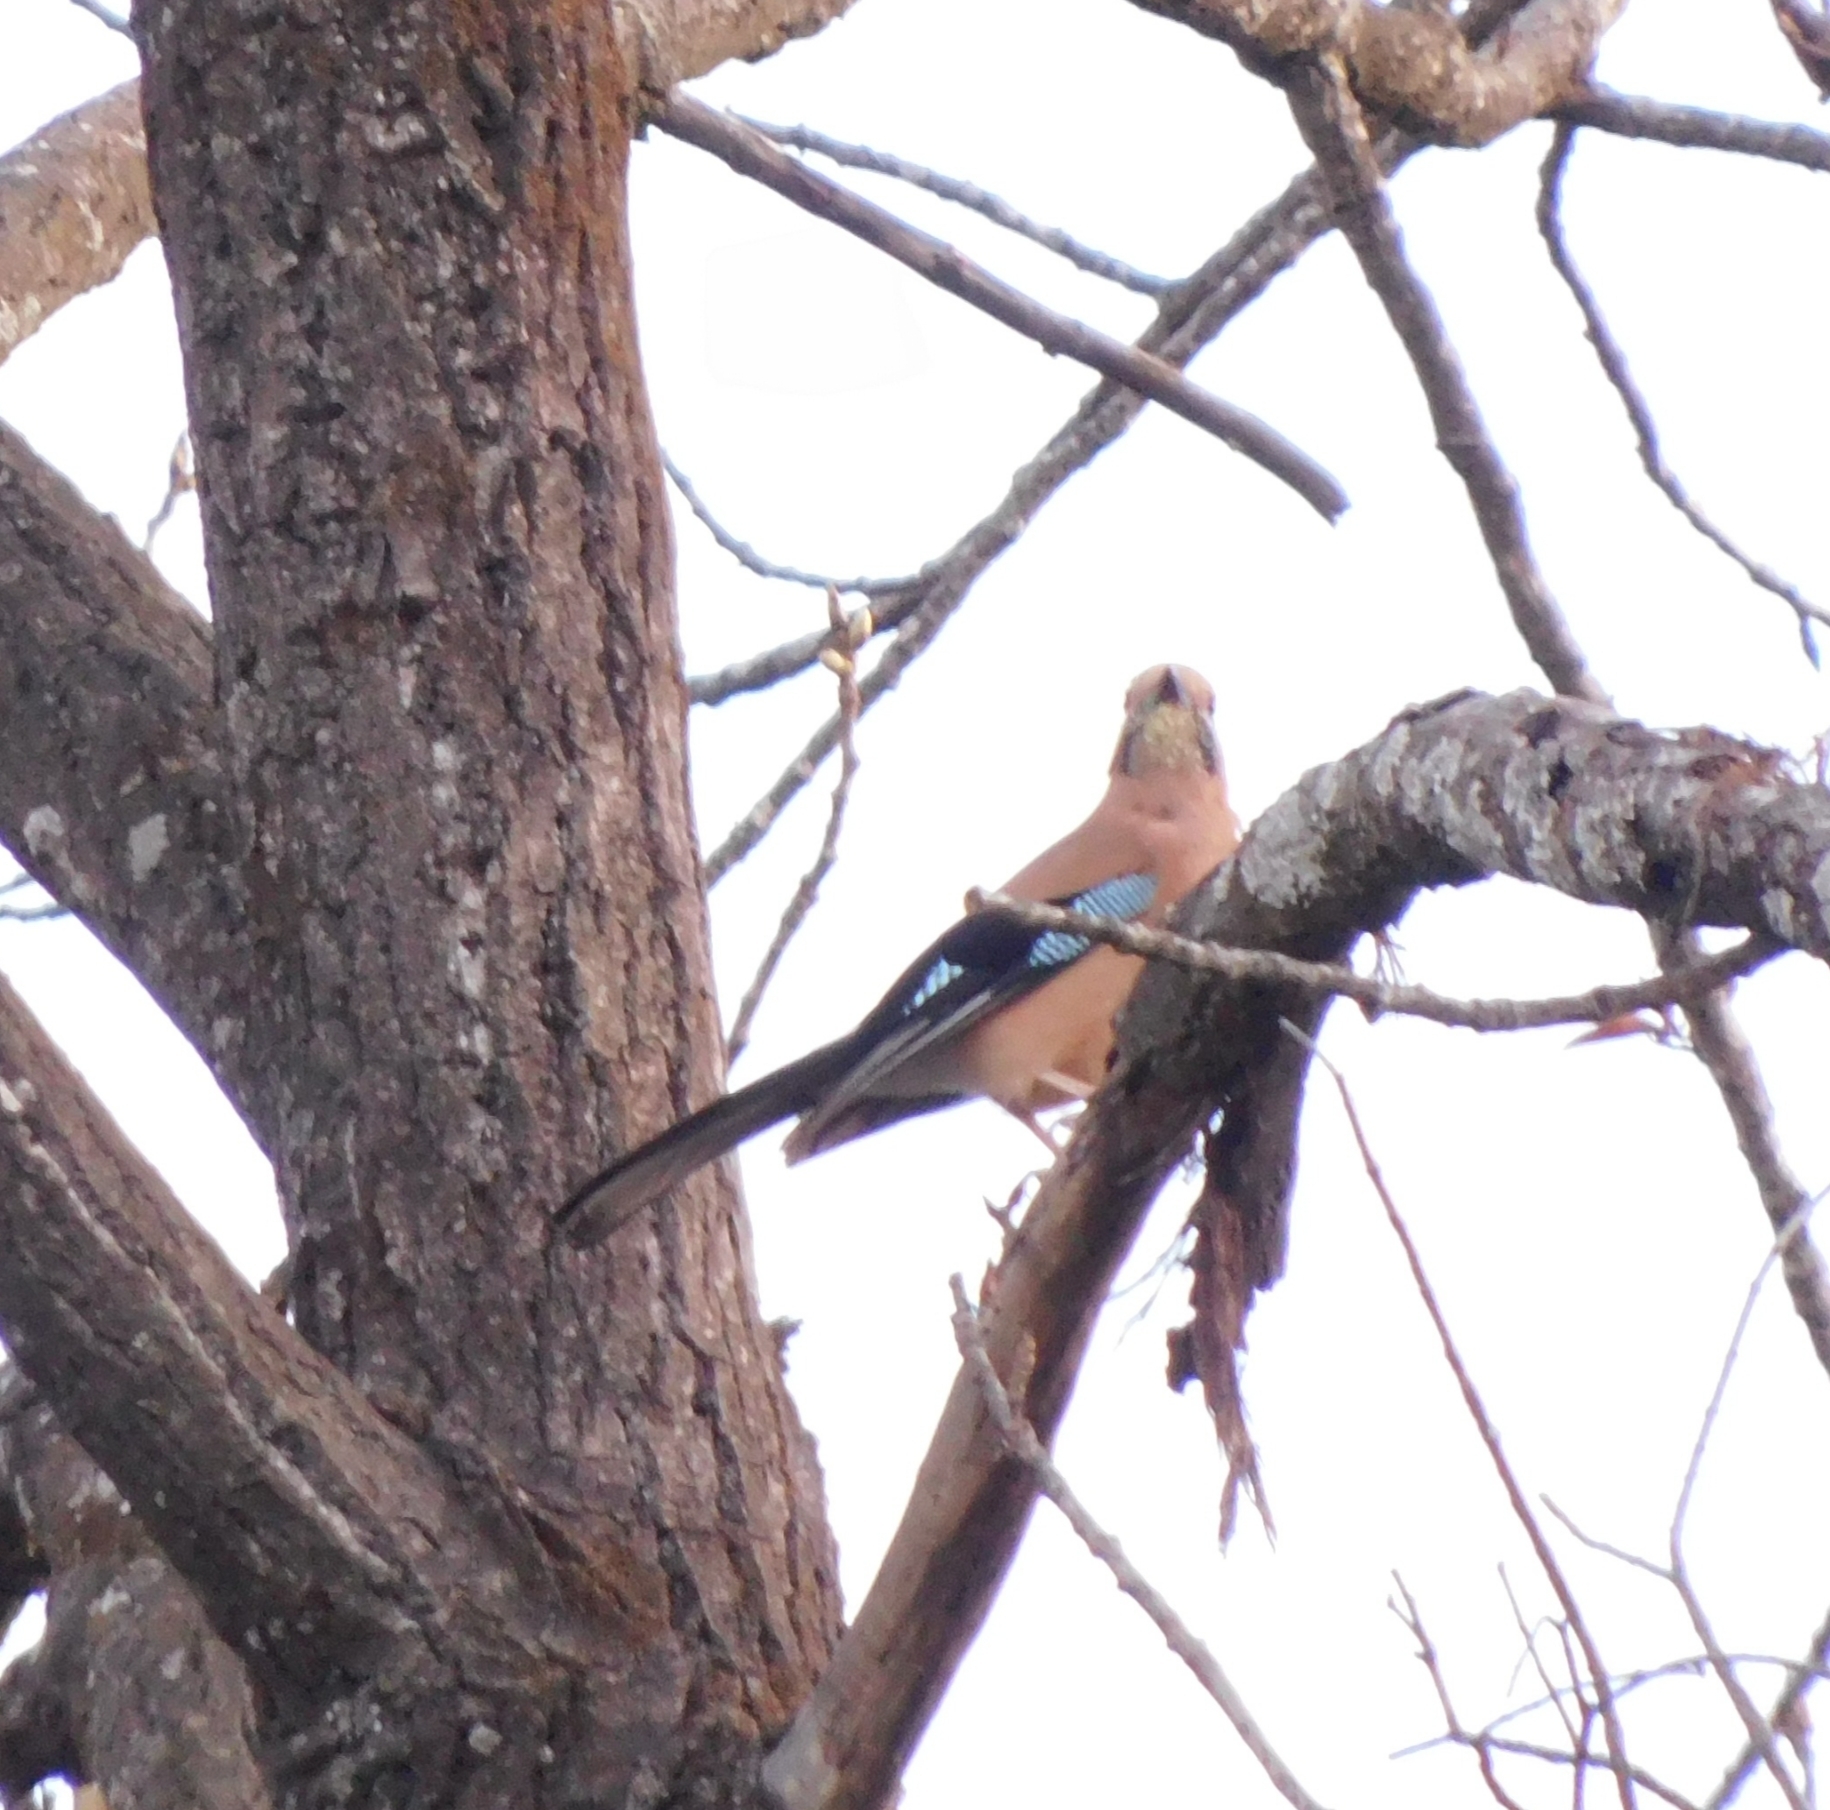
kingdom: Animalia
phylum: Chordata
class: Aves
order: Passeriformes
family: Corvidae
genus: Garrulus
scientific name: Garrulus glandarius
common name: Eurasian jay
